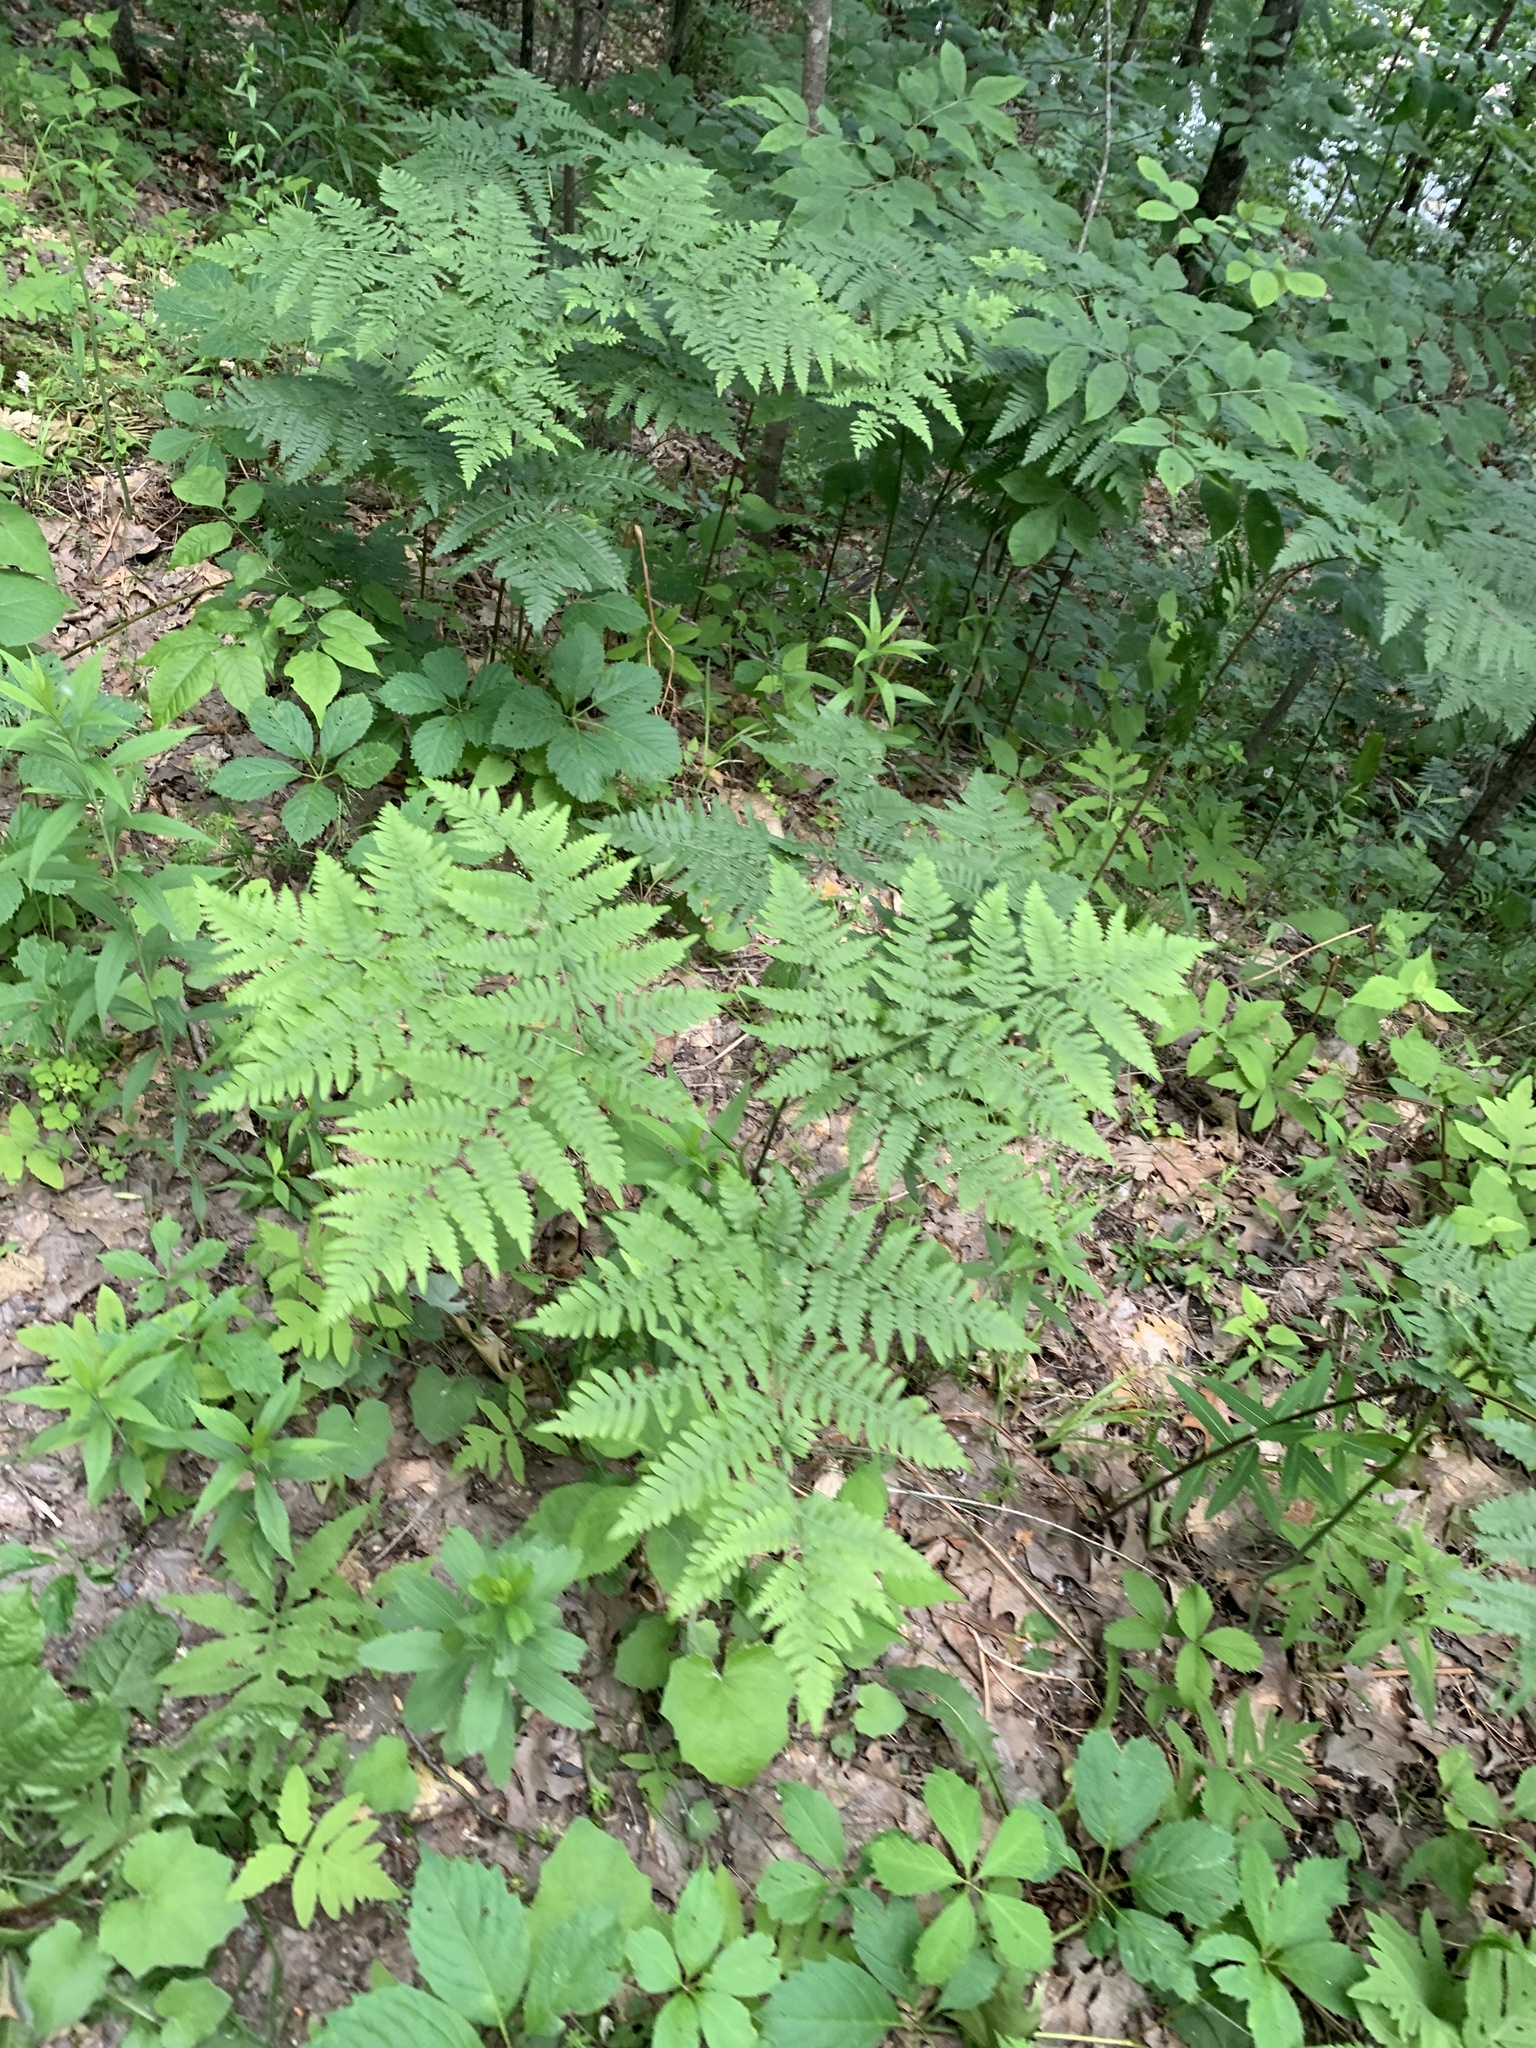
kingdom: Plantae
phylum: Tracheophyta
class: Polypodiopsida
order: Polypodiales
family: Dennstaedtiaceae
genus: Pteridium
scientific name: Pteridium aquilinum
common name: Bracken
